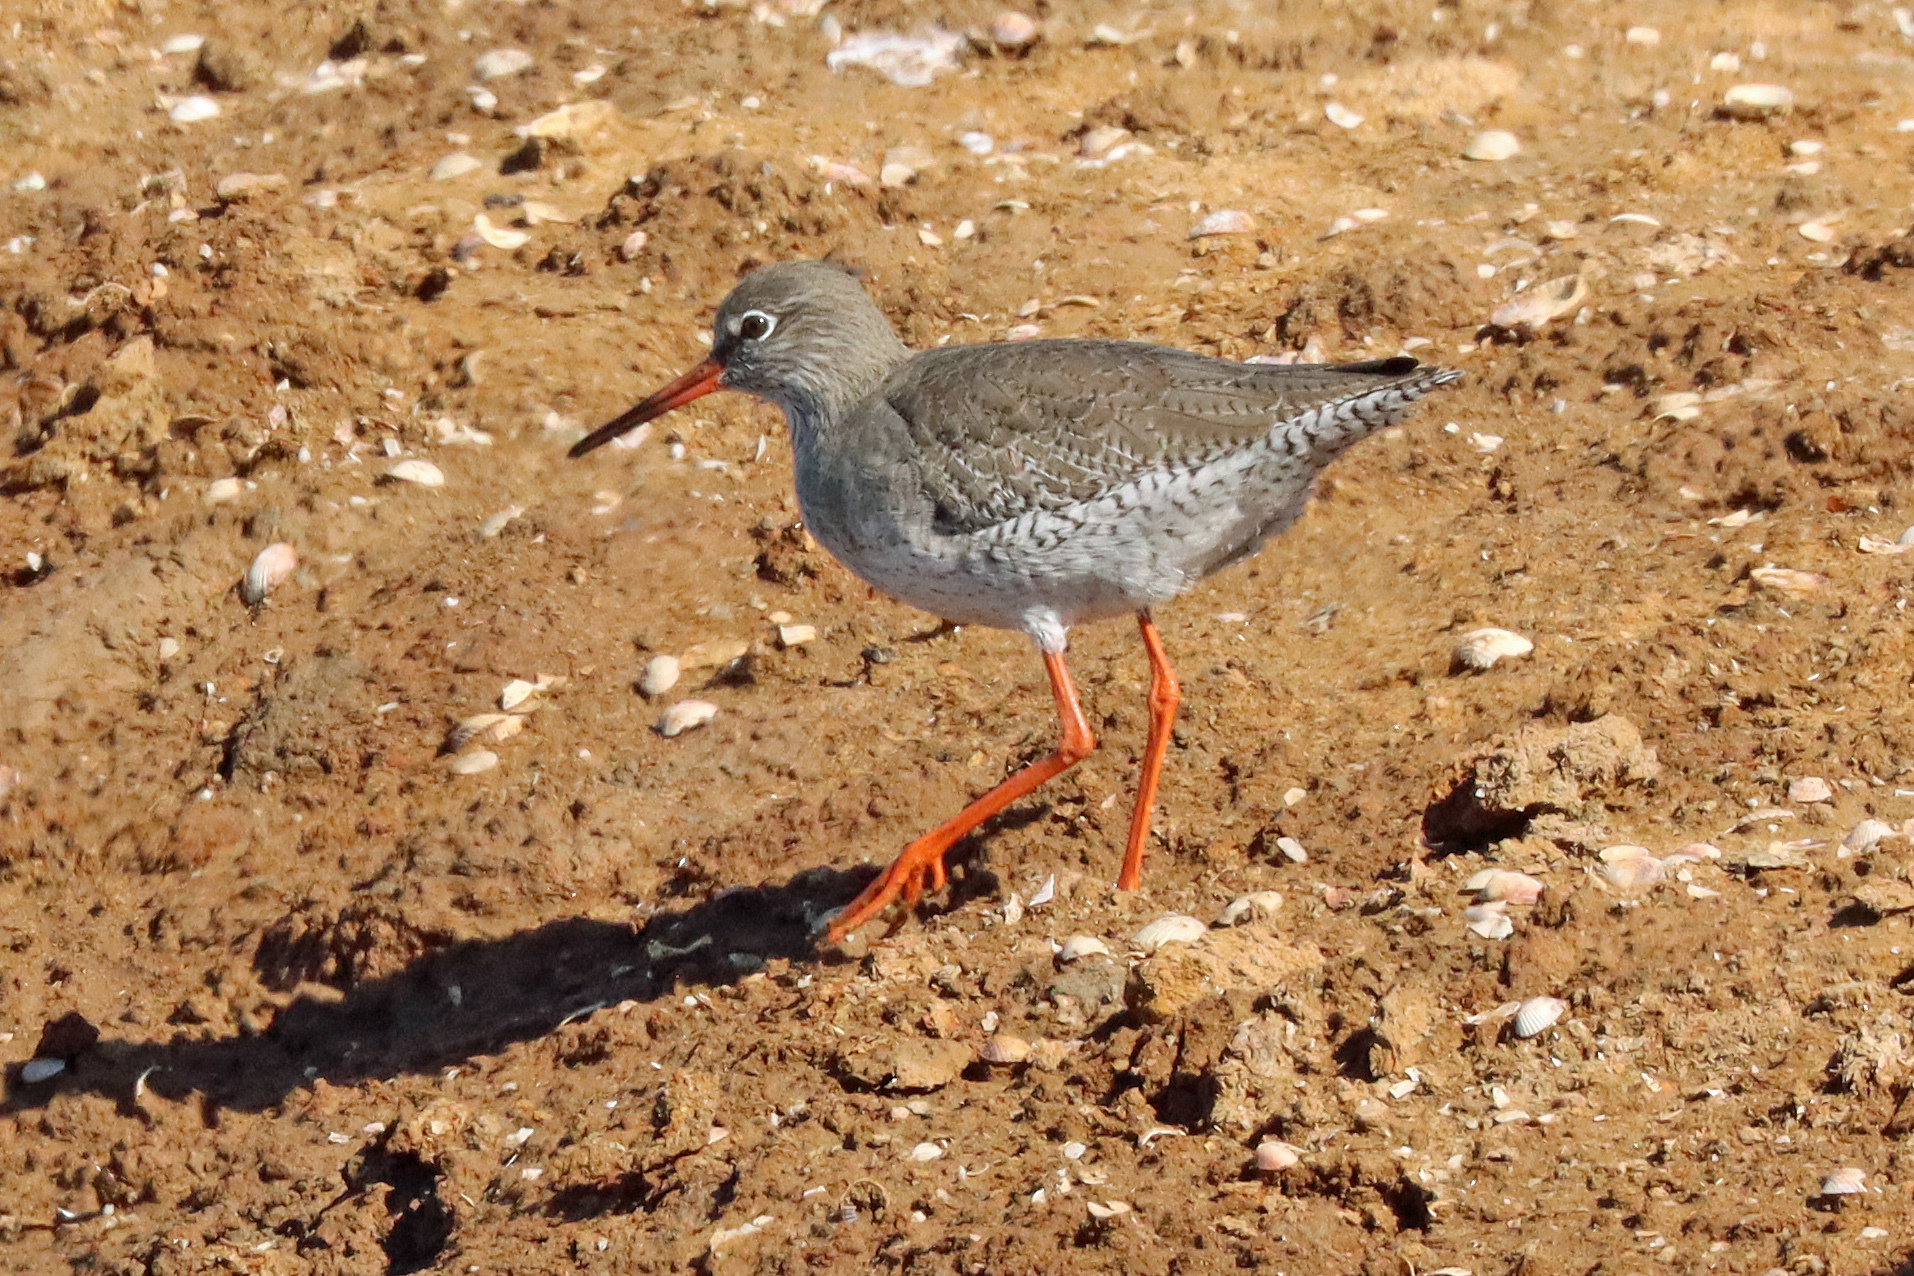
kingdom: Animalia
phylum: Chordata
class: Aves
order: Charadriiformes
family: Scolopacidae
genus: Tringa
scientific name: Tringa totanus
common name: Common redshank
